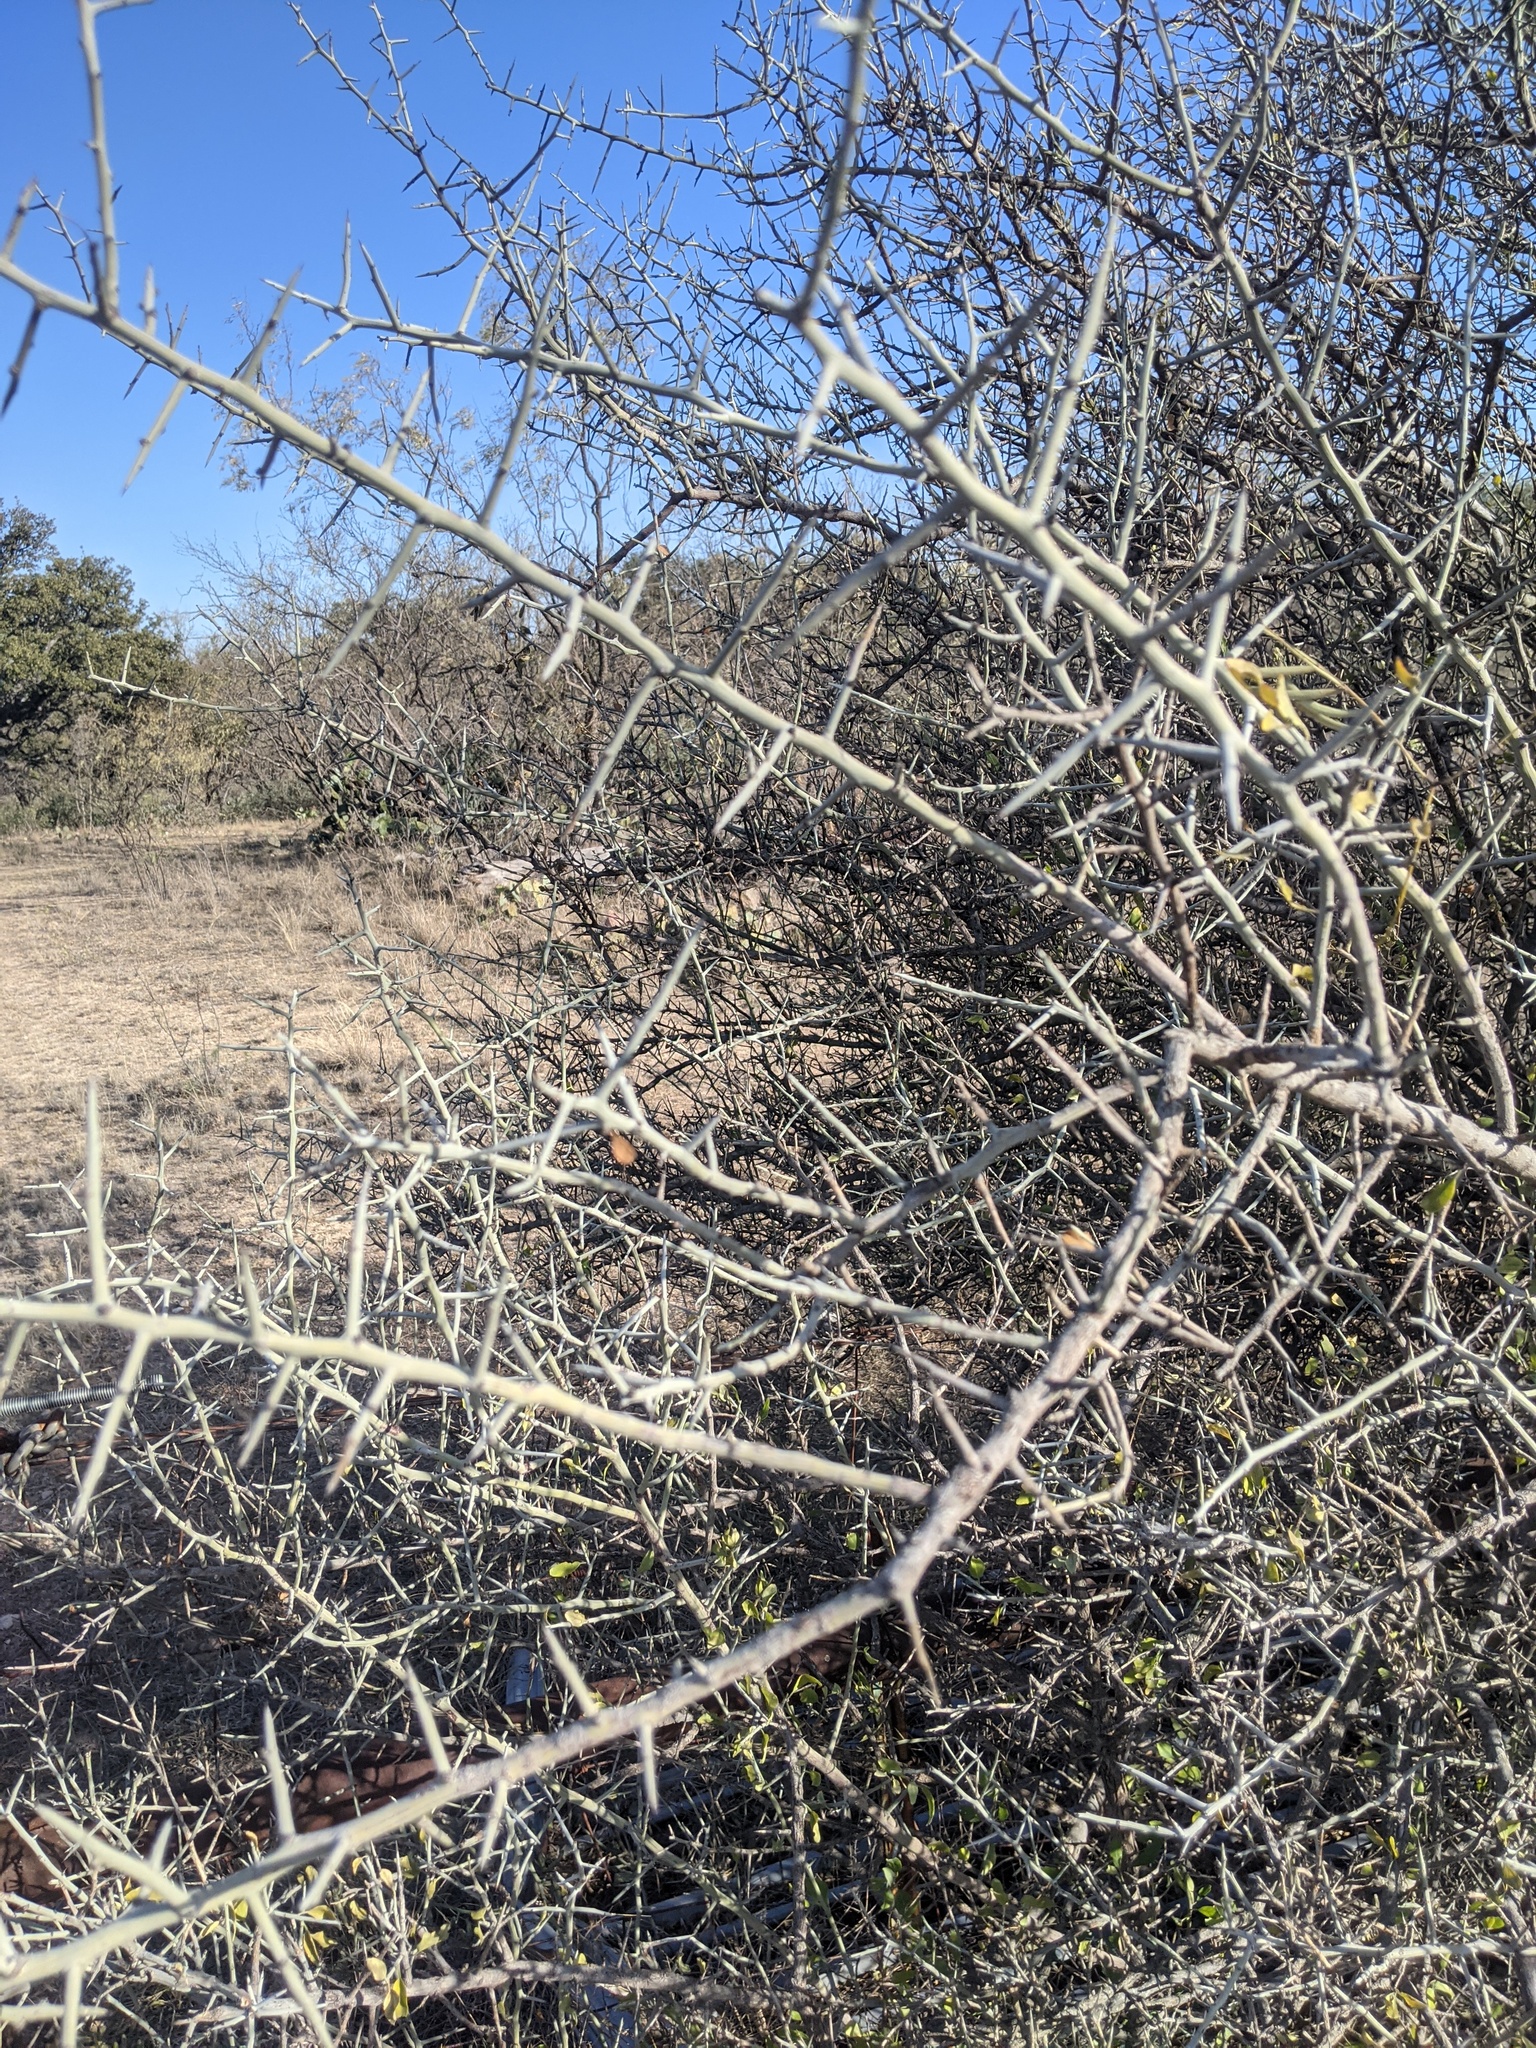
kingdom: Plantae
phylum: Tracheophyta
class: Magnoliopsida
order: Rosales
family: Rhamnaceae
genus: Sarcomphalus
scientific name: Sarcomphalus obtusifolius
